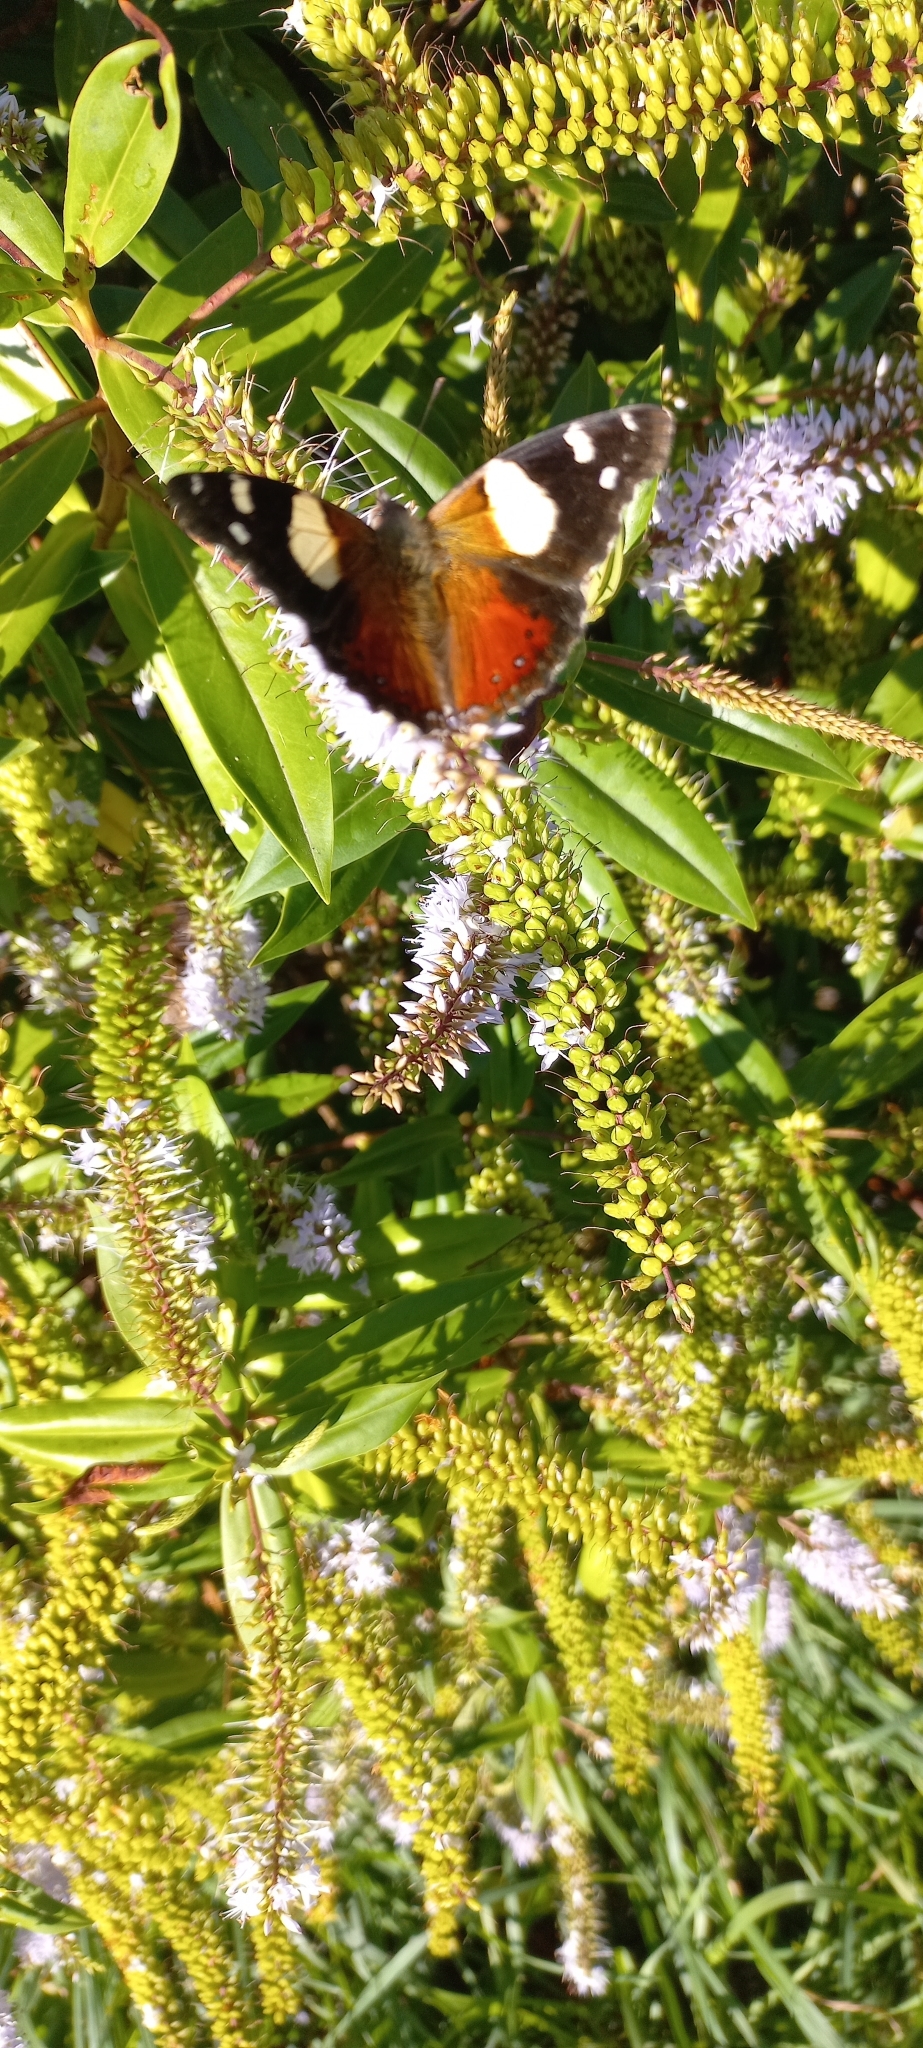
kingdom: Animalia
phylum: Arthropoda
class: Insecta
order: Lepidoptera
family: Nymphalidae
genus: Vanessa
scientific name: Vanessa itea
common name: Yellow admiral
